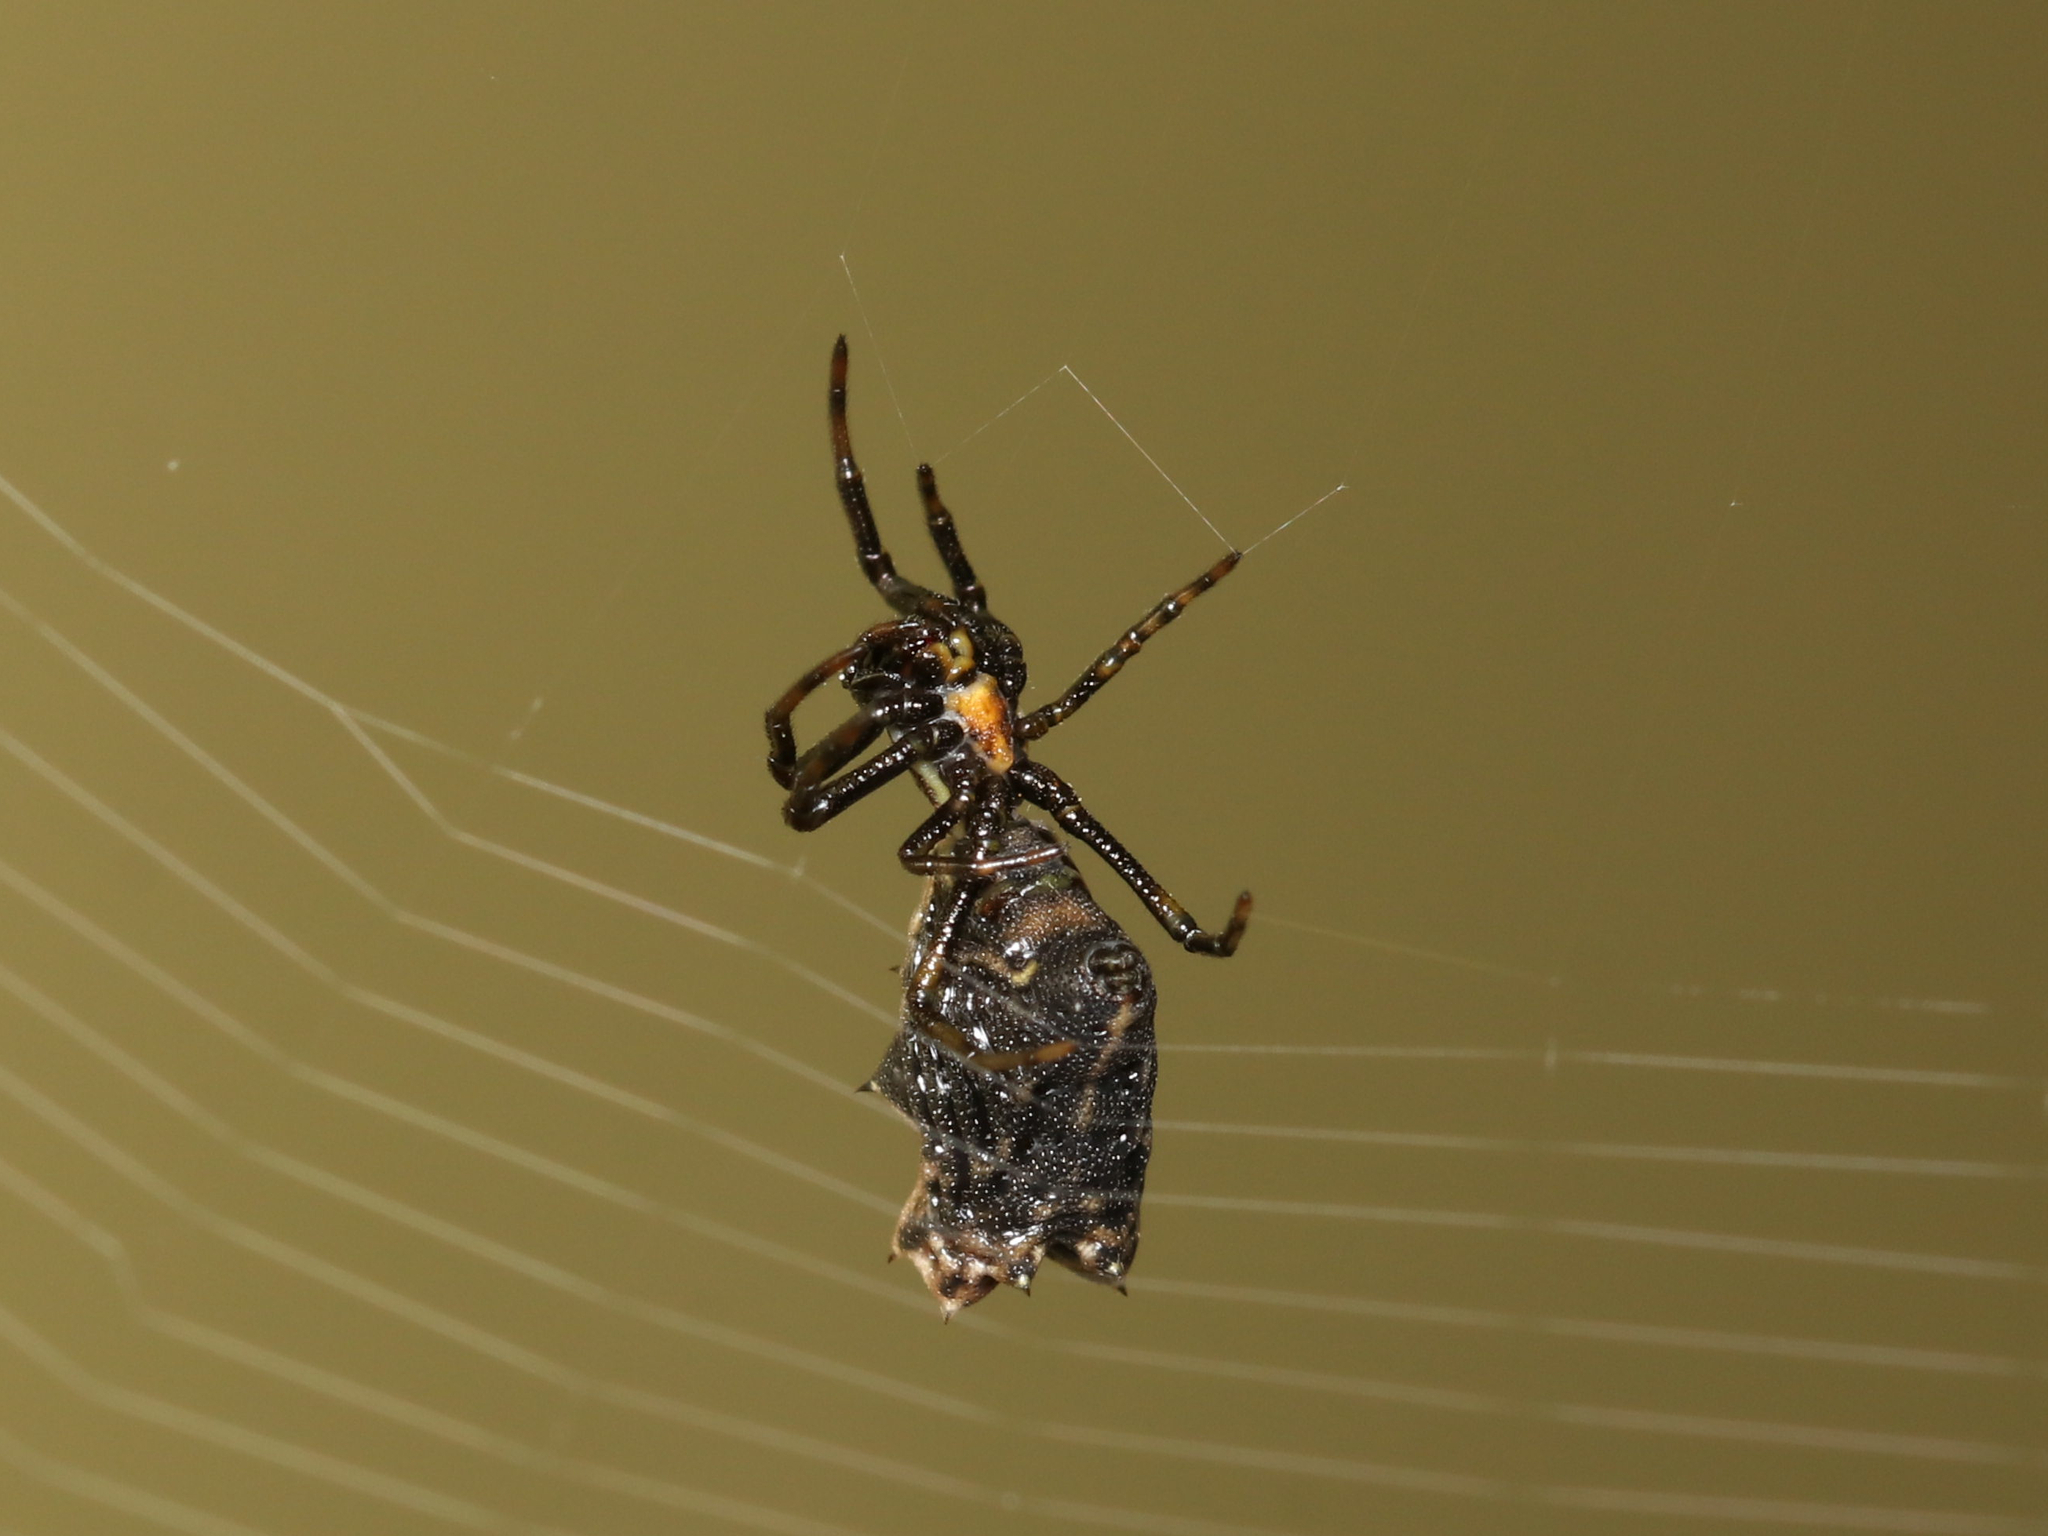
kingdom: Animalia
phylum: Arthropoda
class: Arachnida
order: Araneae
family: Araneidae
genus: Micrathena
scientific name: Micrathena gracilis
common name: Orb weavers
